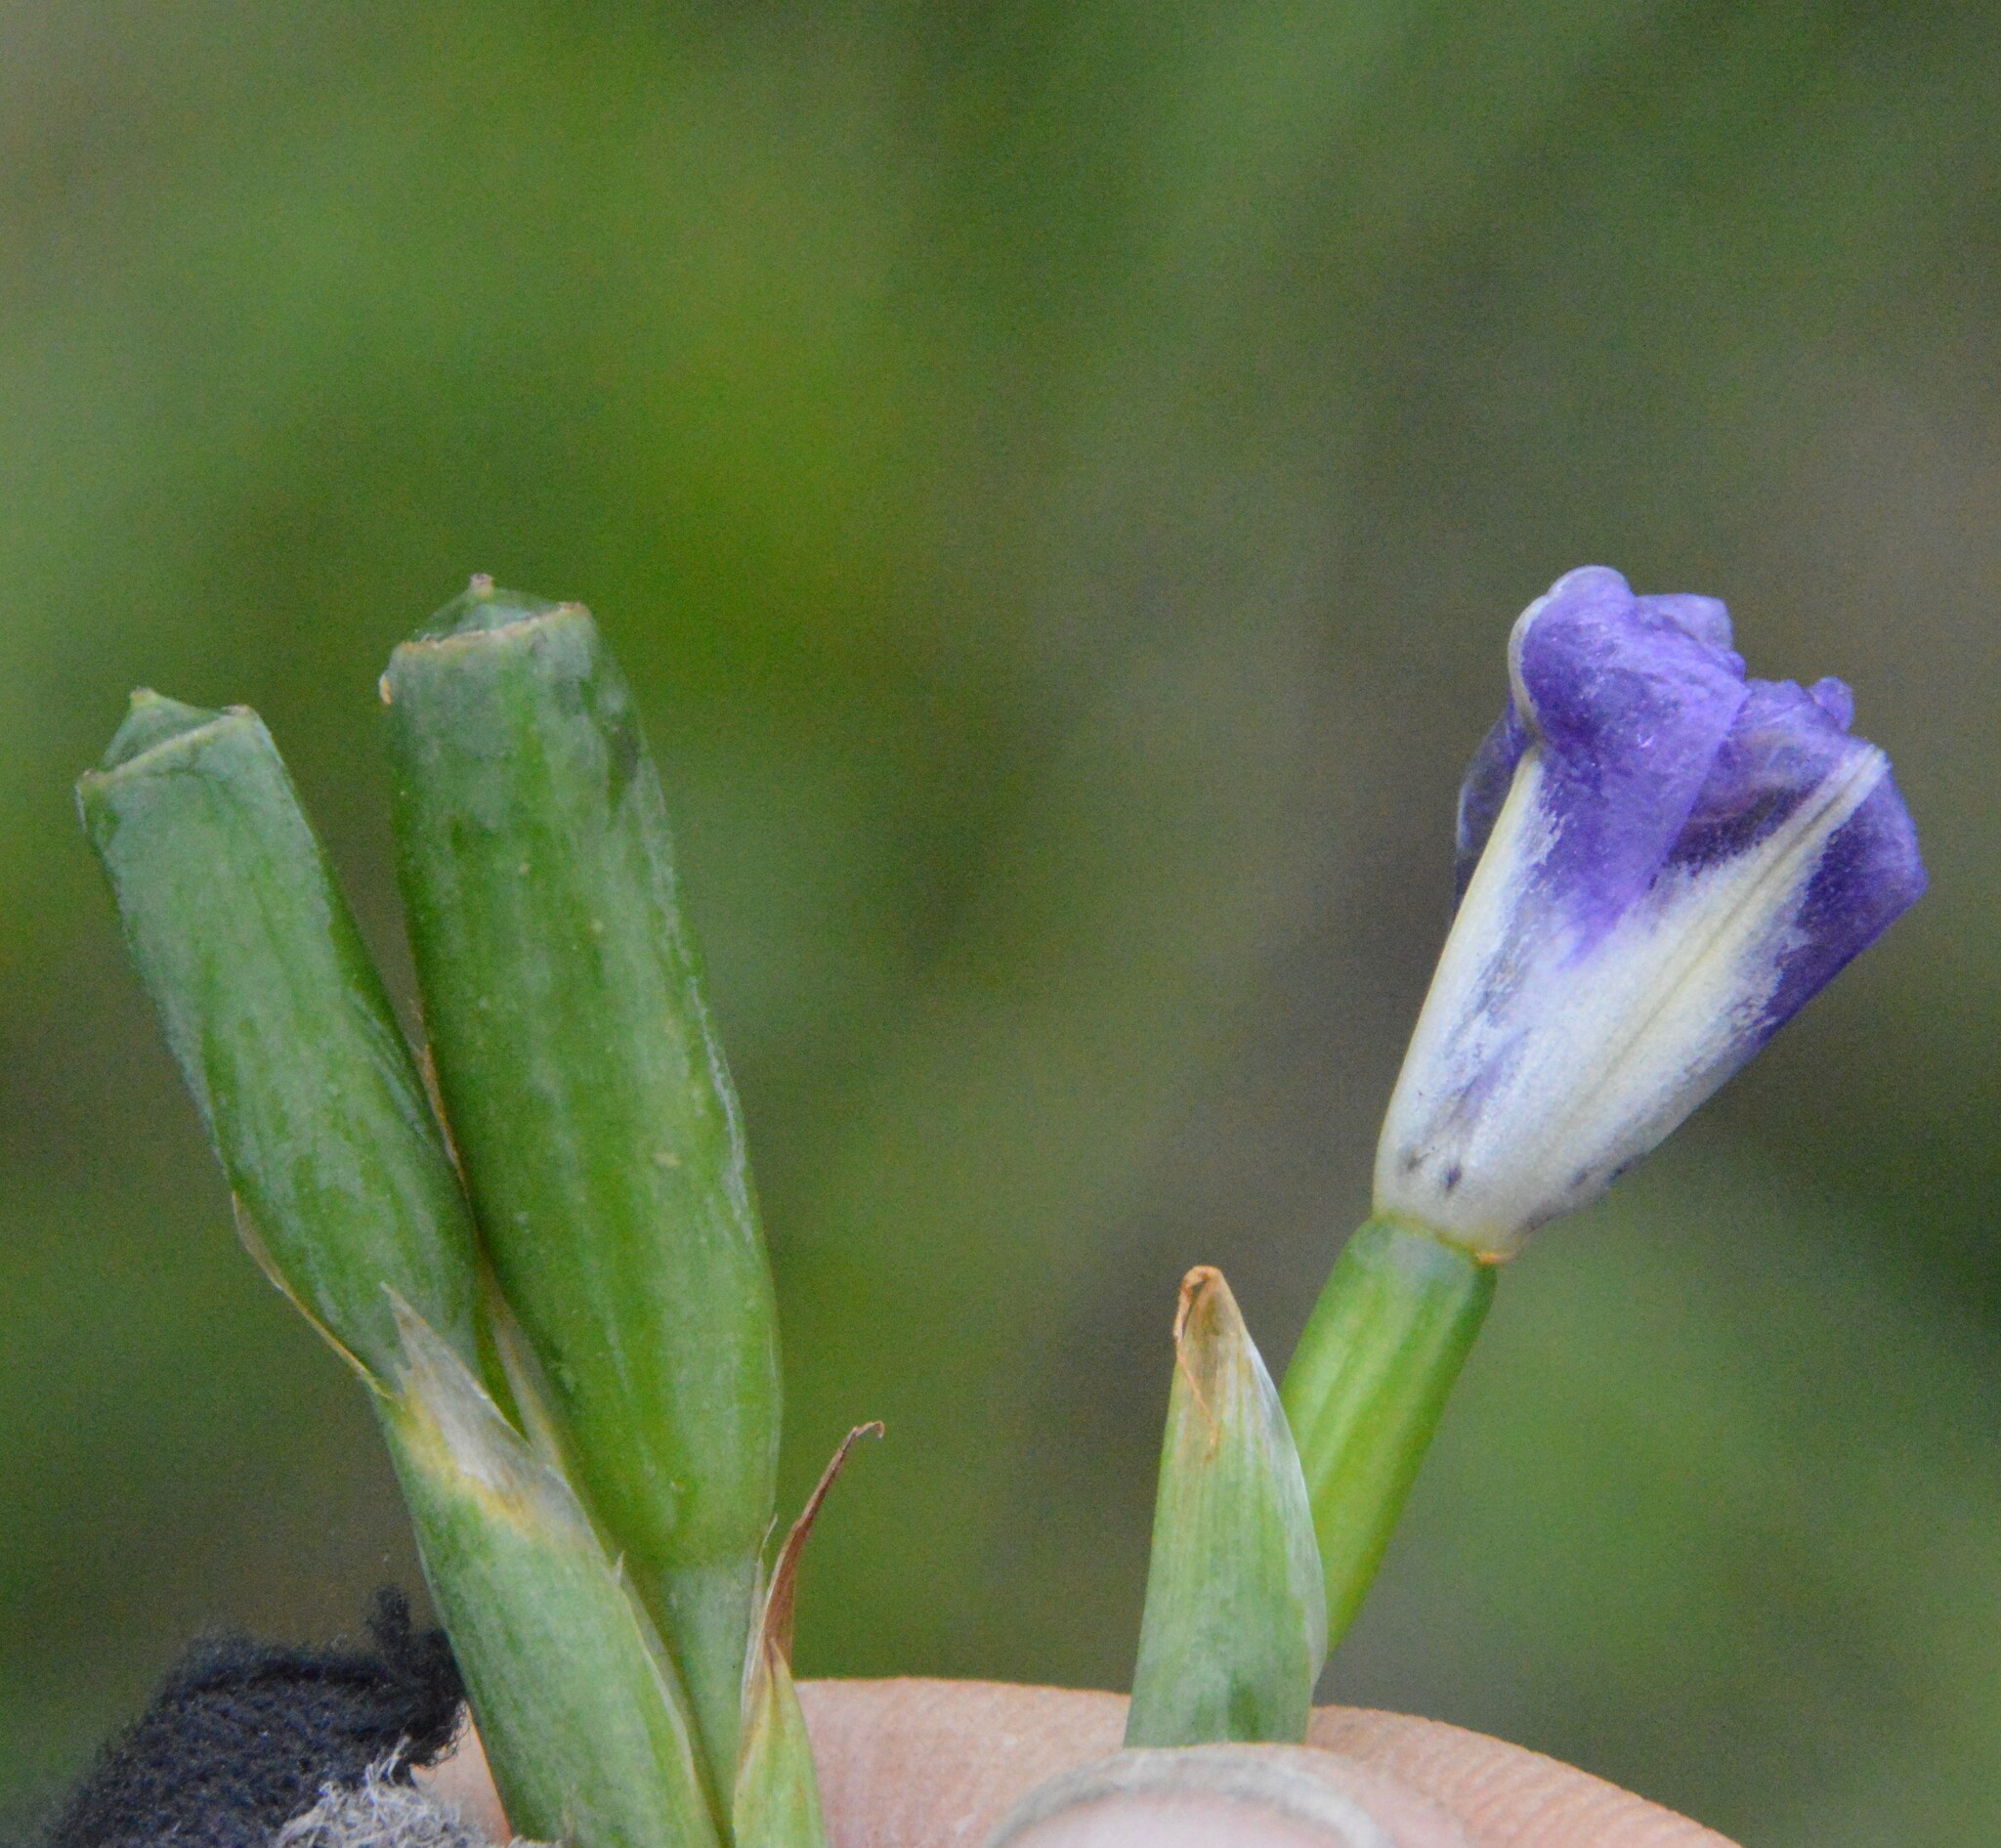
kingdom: Plantae
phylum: Tracheophyta
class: Liliopsida
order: Asparagales
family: Iridaceae
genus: Herbertia
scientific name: Herbertia lahue
